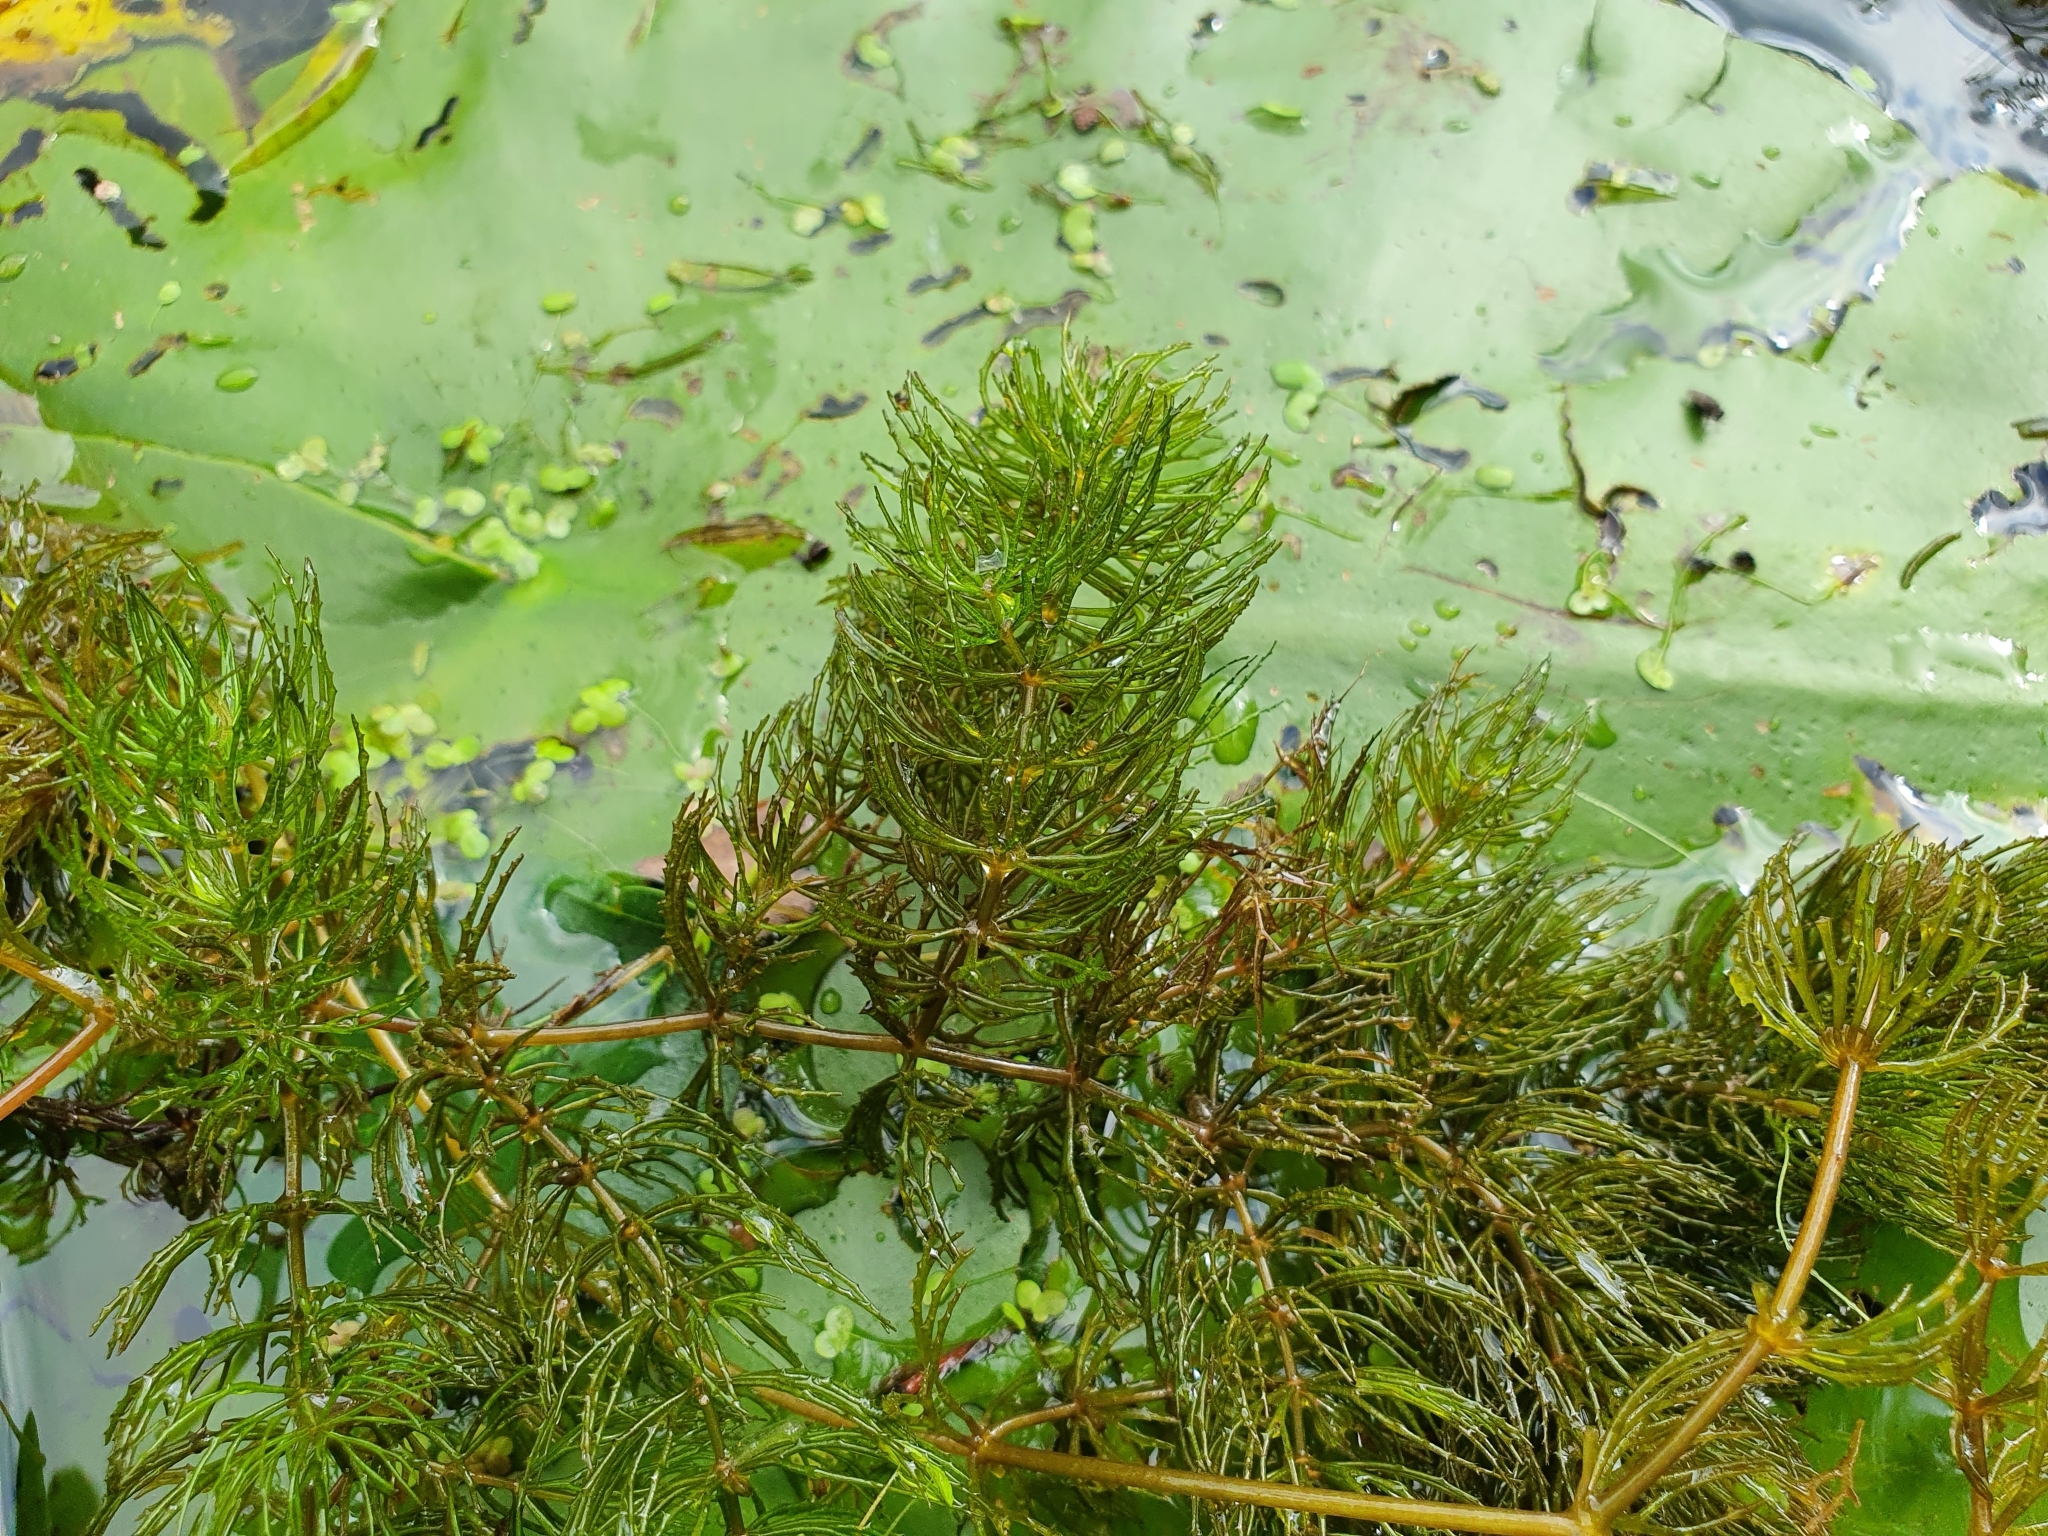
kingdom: Plantae
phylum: Tracheophyta
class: Magnoliopsida
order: Ceratophyllales
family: Ceratophyllaceae
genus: Ceratophyllum
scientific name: Ceratophyllum demersum
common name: Rigid hornwort
